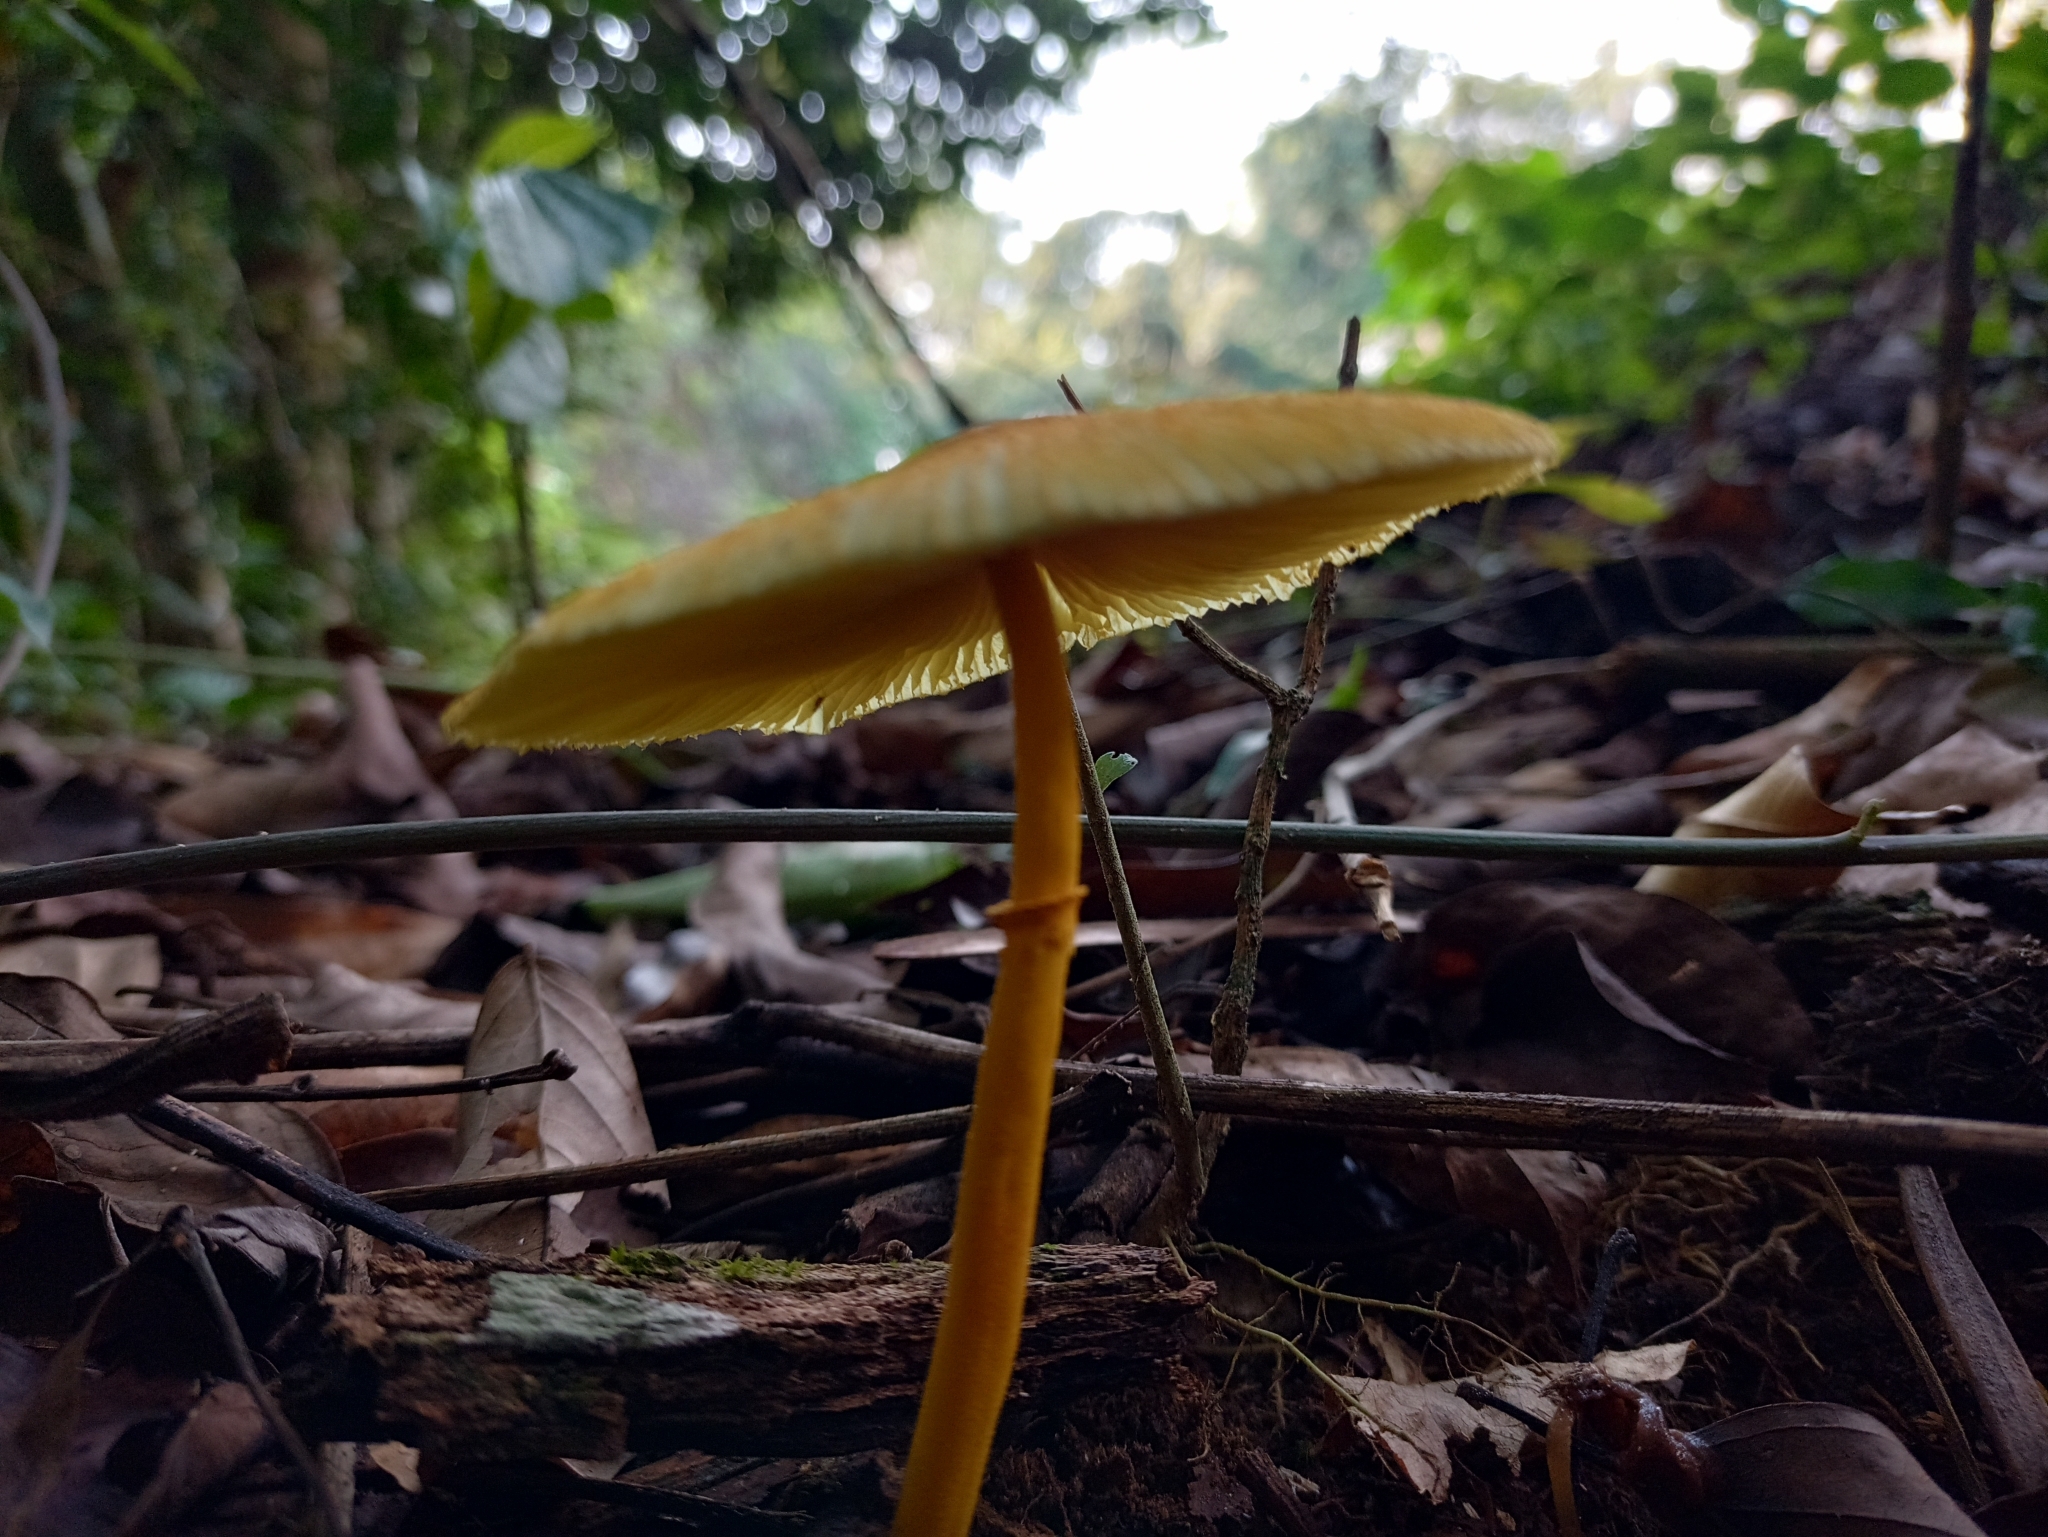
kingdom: Fungi
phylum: Basidiomycota
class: Agaricomycetes
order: Agaricales
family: Agaricaceae
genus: Leucocoprinus
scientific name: Leucocoprinus brunneoluteus
